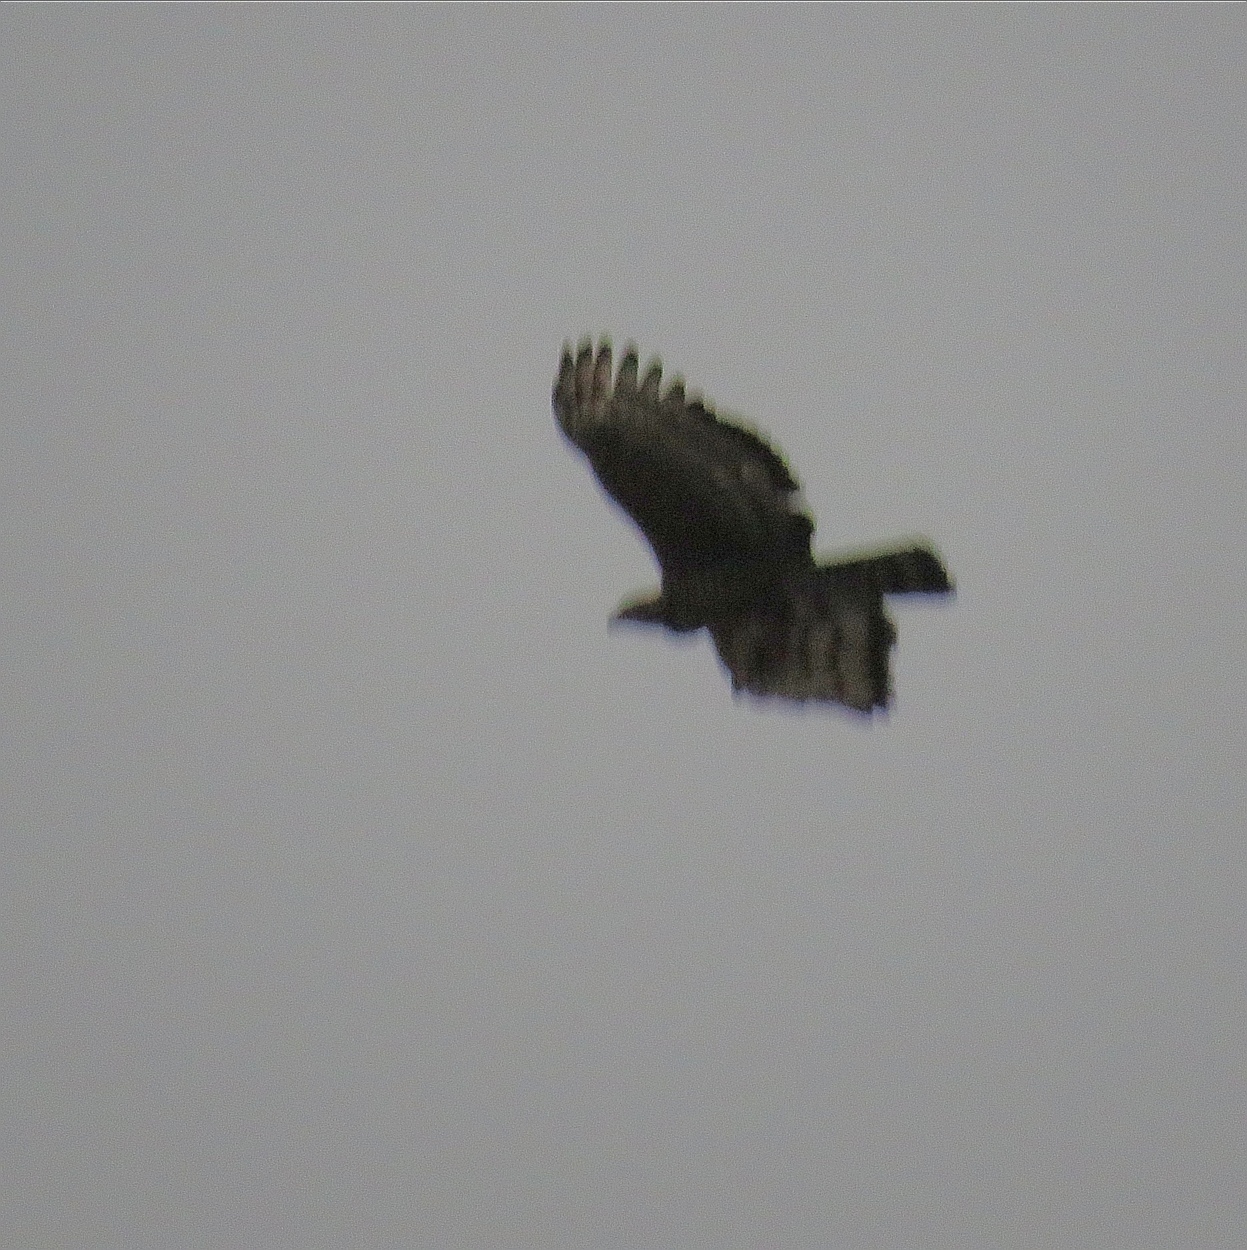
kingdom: Animalia
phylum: Chordata
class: Aves
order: Accipitriformes
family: Accipitridae
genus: Stephanoaetus
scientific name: Stephanoaetus coronatus
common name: Crowned eagle
